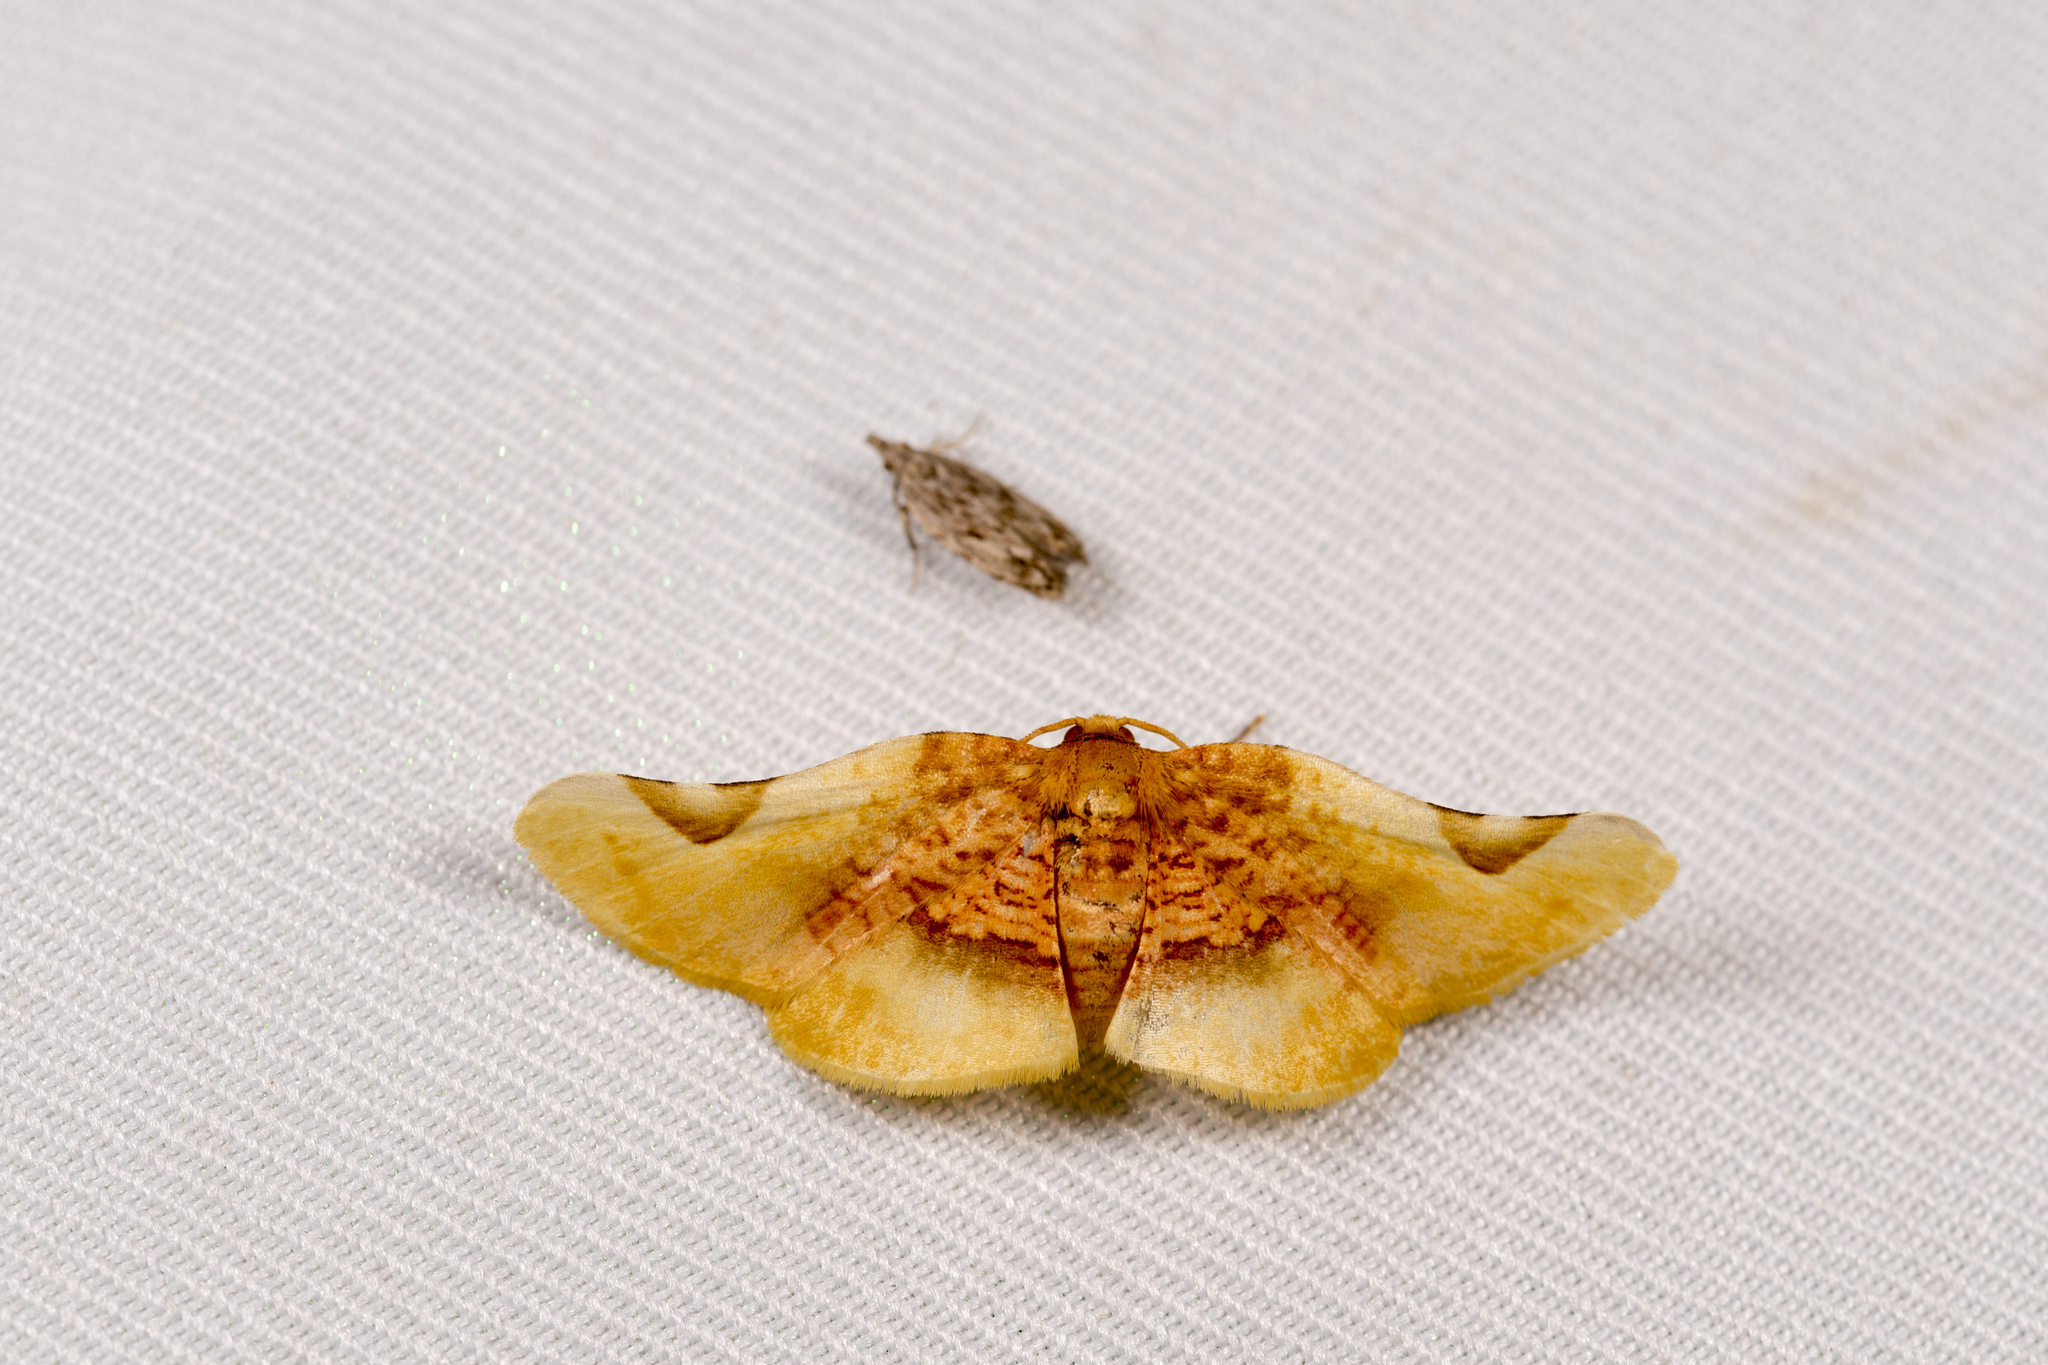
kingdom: Animalia
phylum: Arthropoda
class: Insecta
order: Lepidoptera
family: Thyrididae
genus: Pyrinioides
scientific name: Pyrinioides sinuosa
